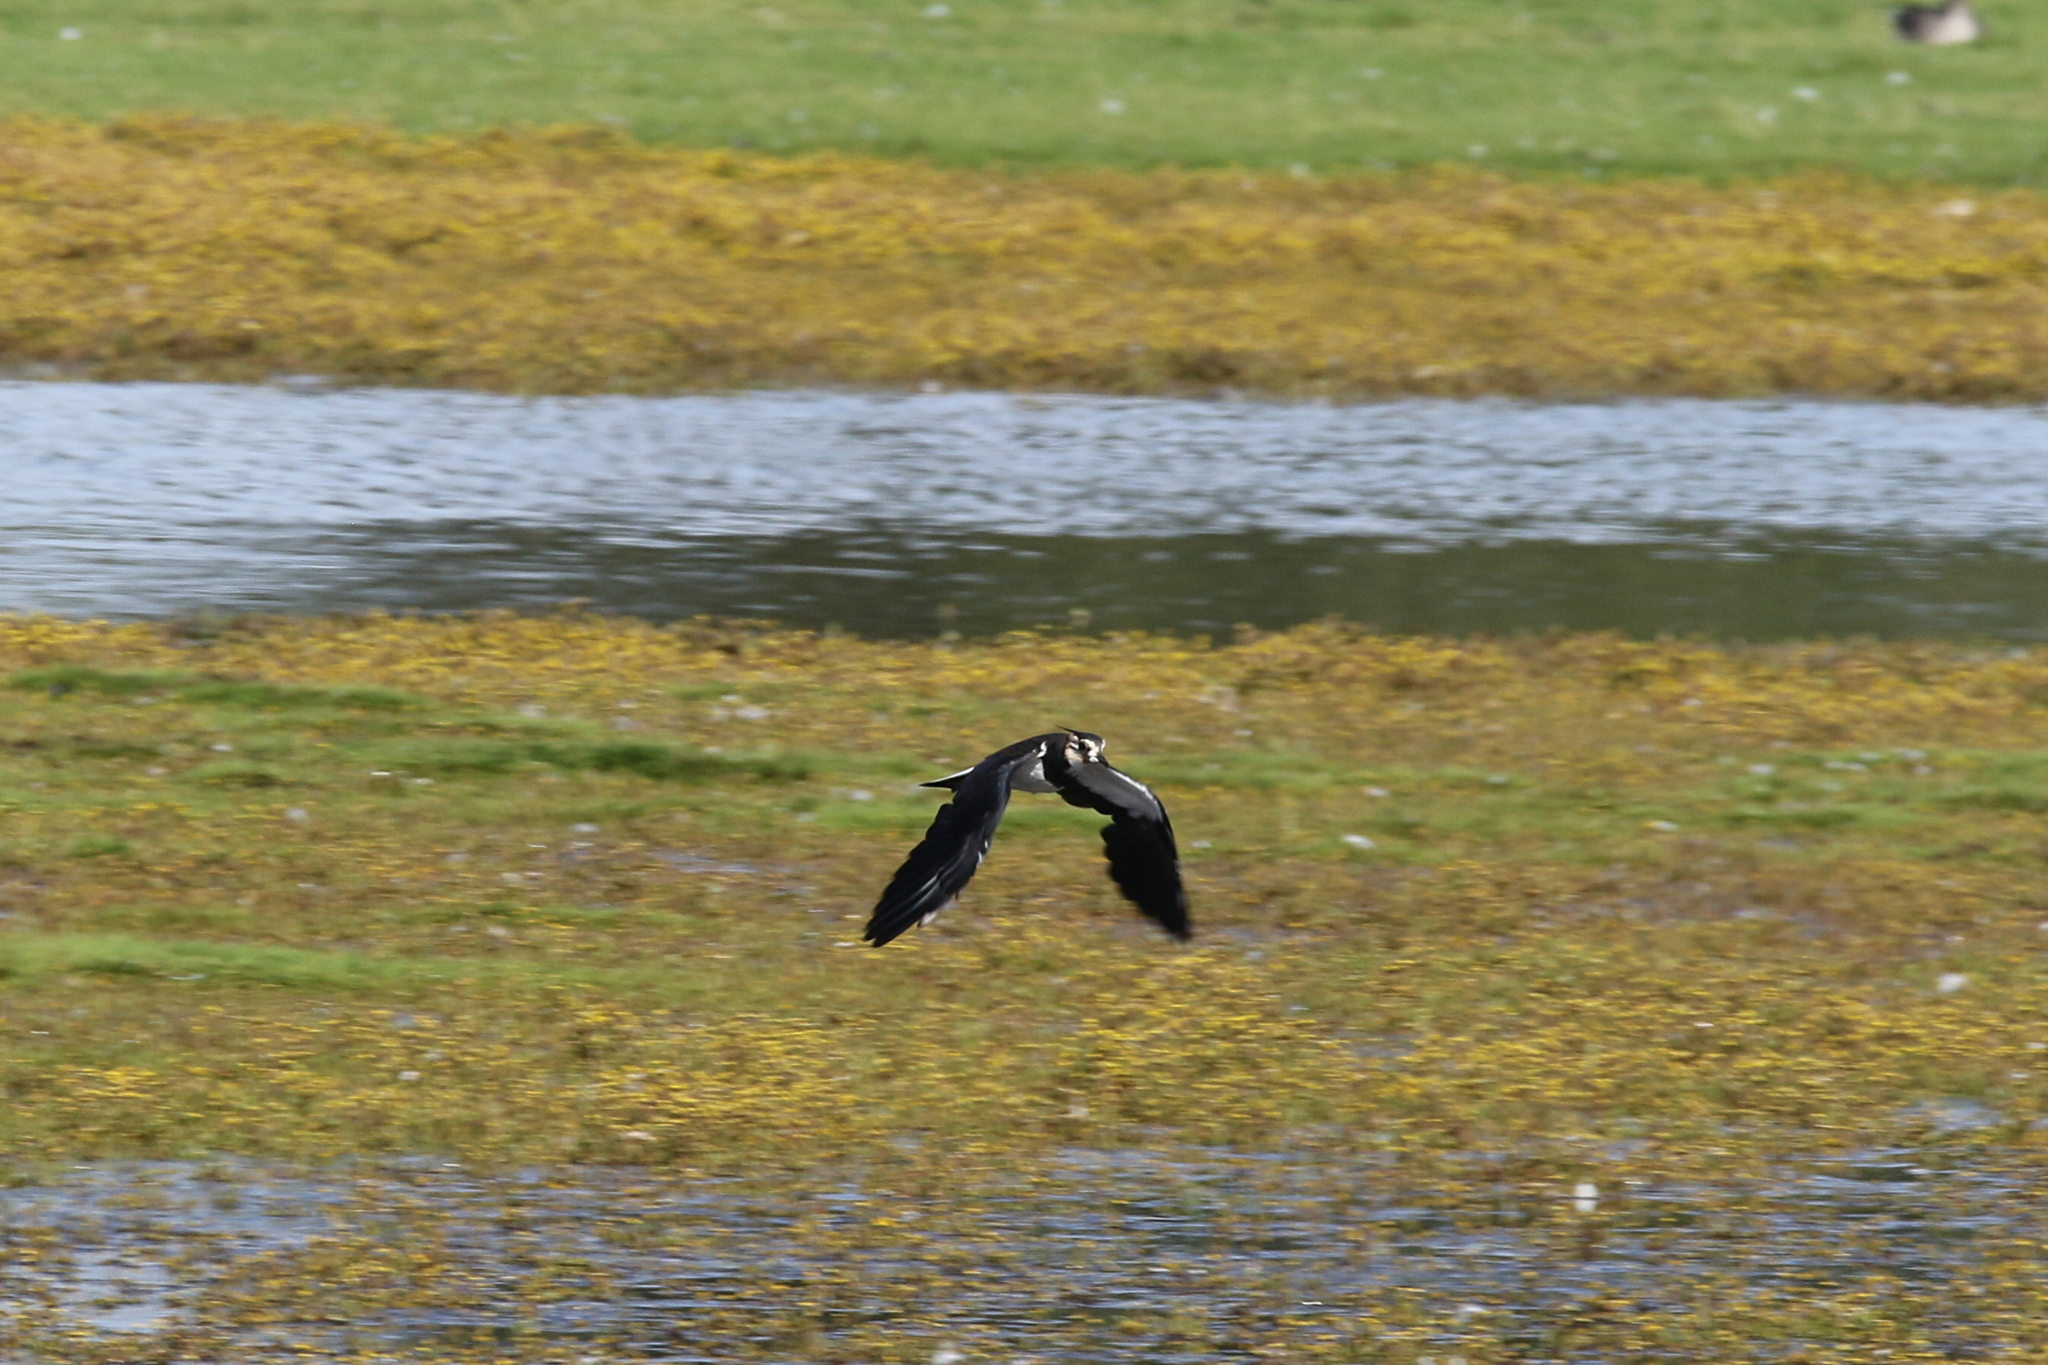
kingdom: Animalia
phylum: Chordata
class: Aves
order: Charadriiformes
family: Charadriidae
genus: Vanellus
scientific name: Vanellus vanellus
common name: Northern lapwing
